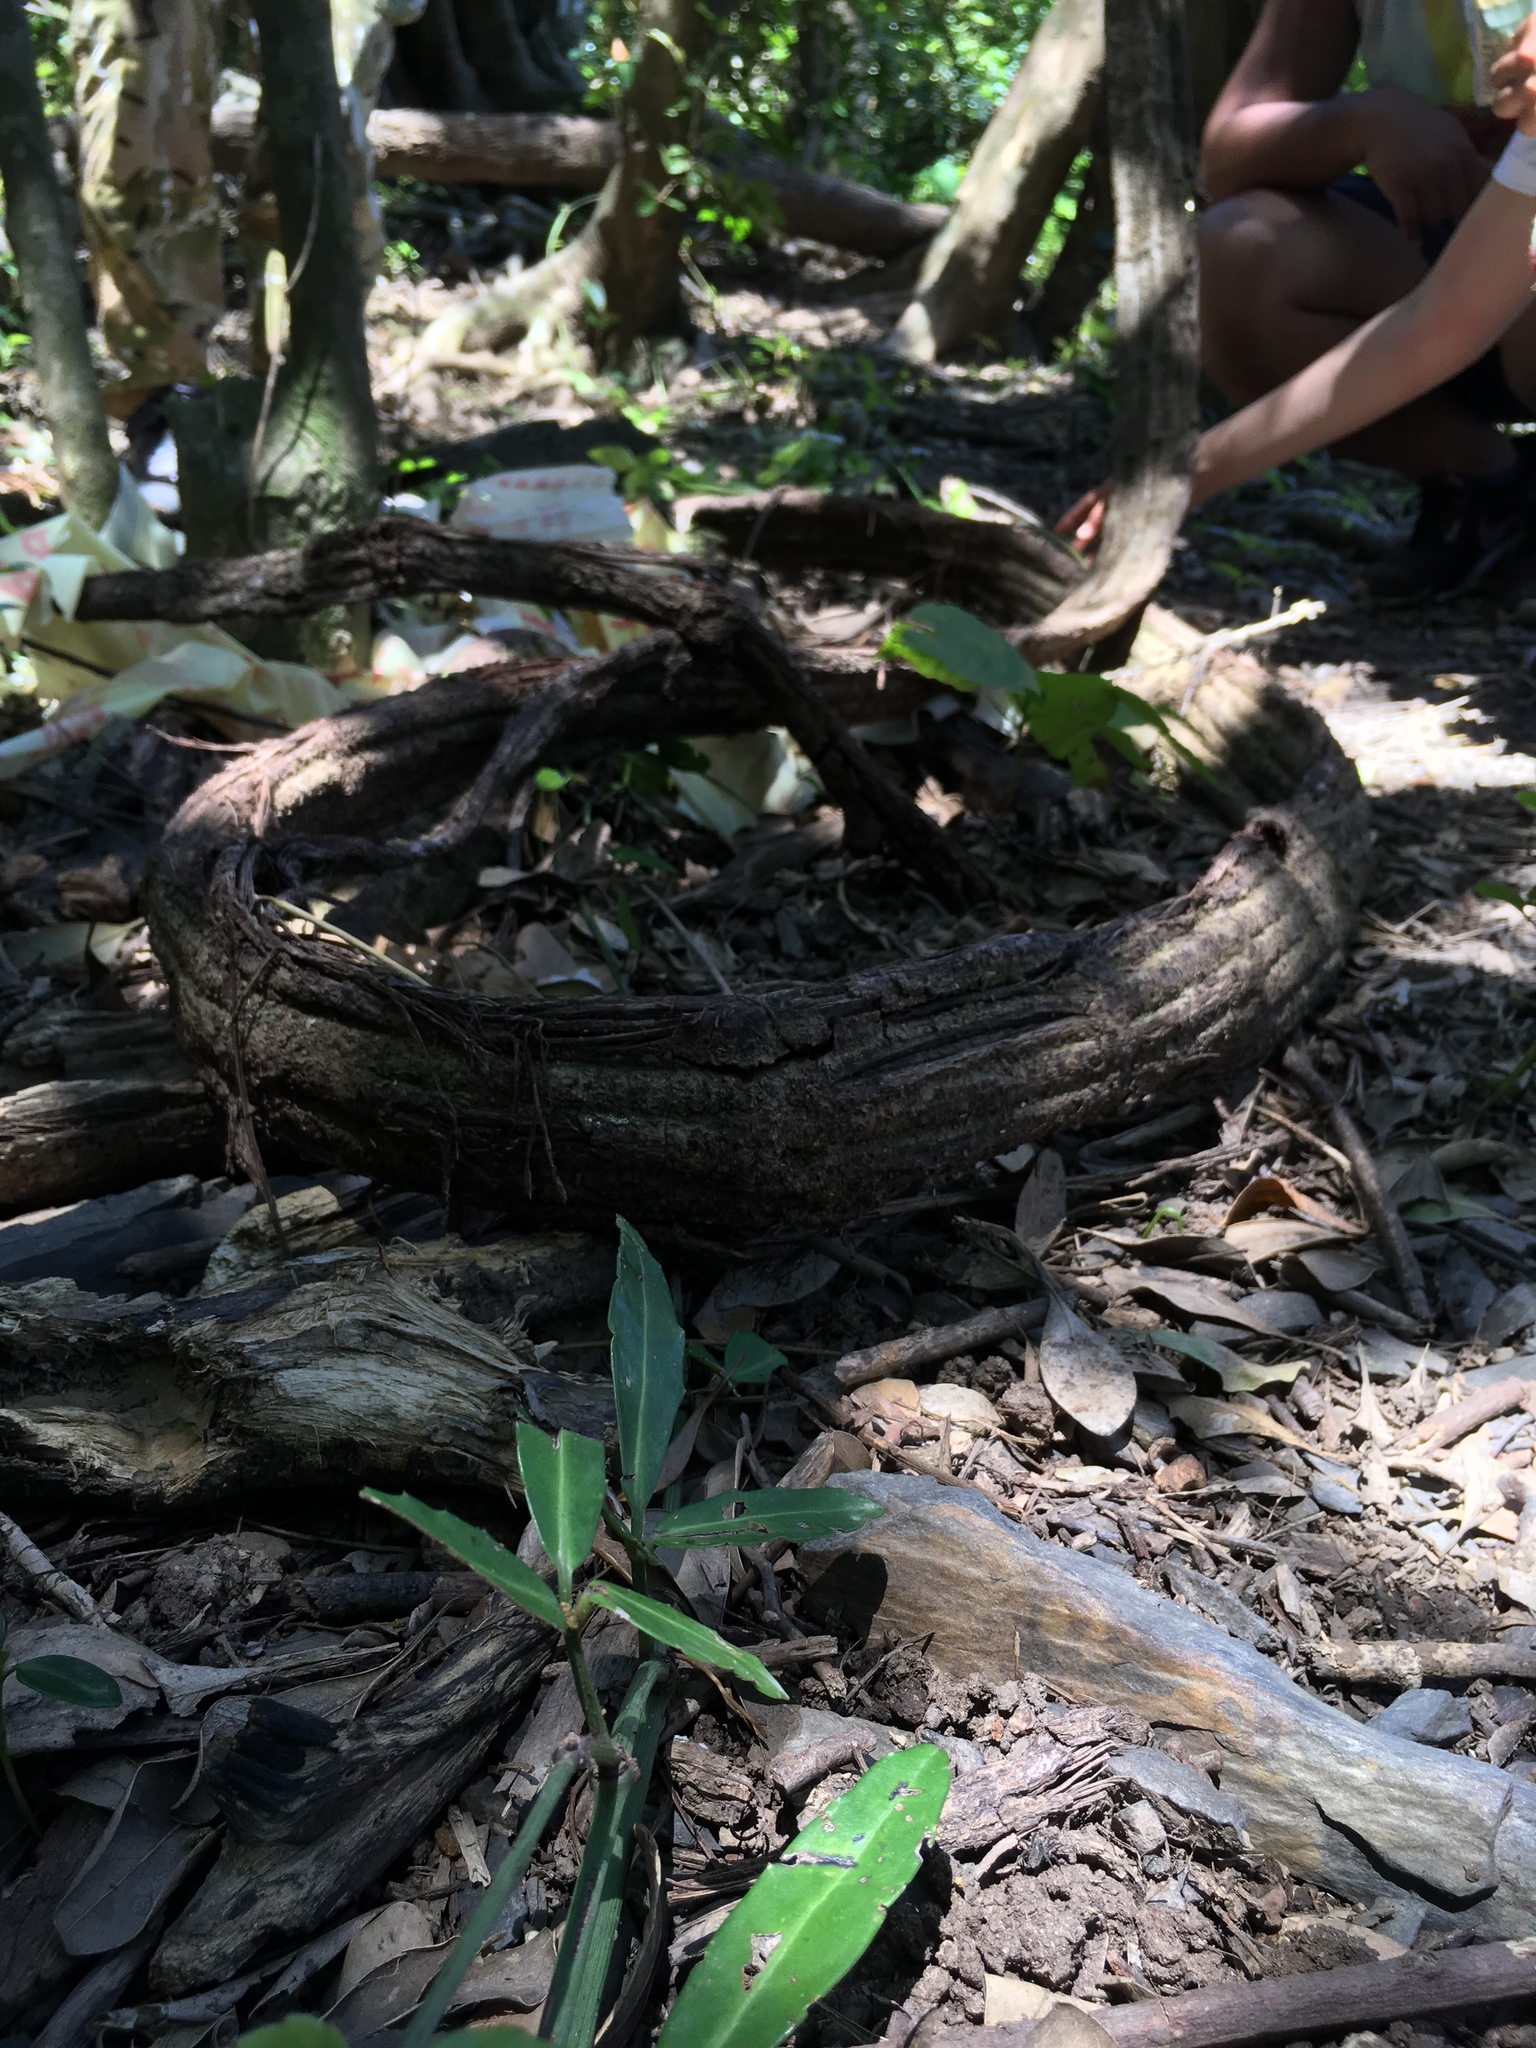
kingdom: Plantae
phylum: Tracheophyta
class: Magnoliopsida
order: Vitales
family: Vitaceae
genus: Tetrastigma
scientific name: Tetrastigma formosanum
